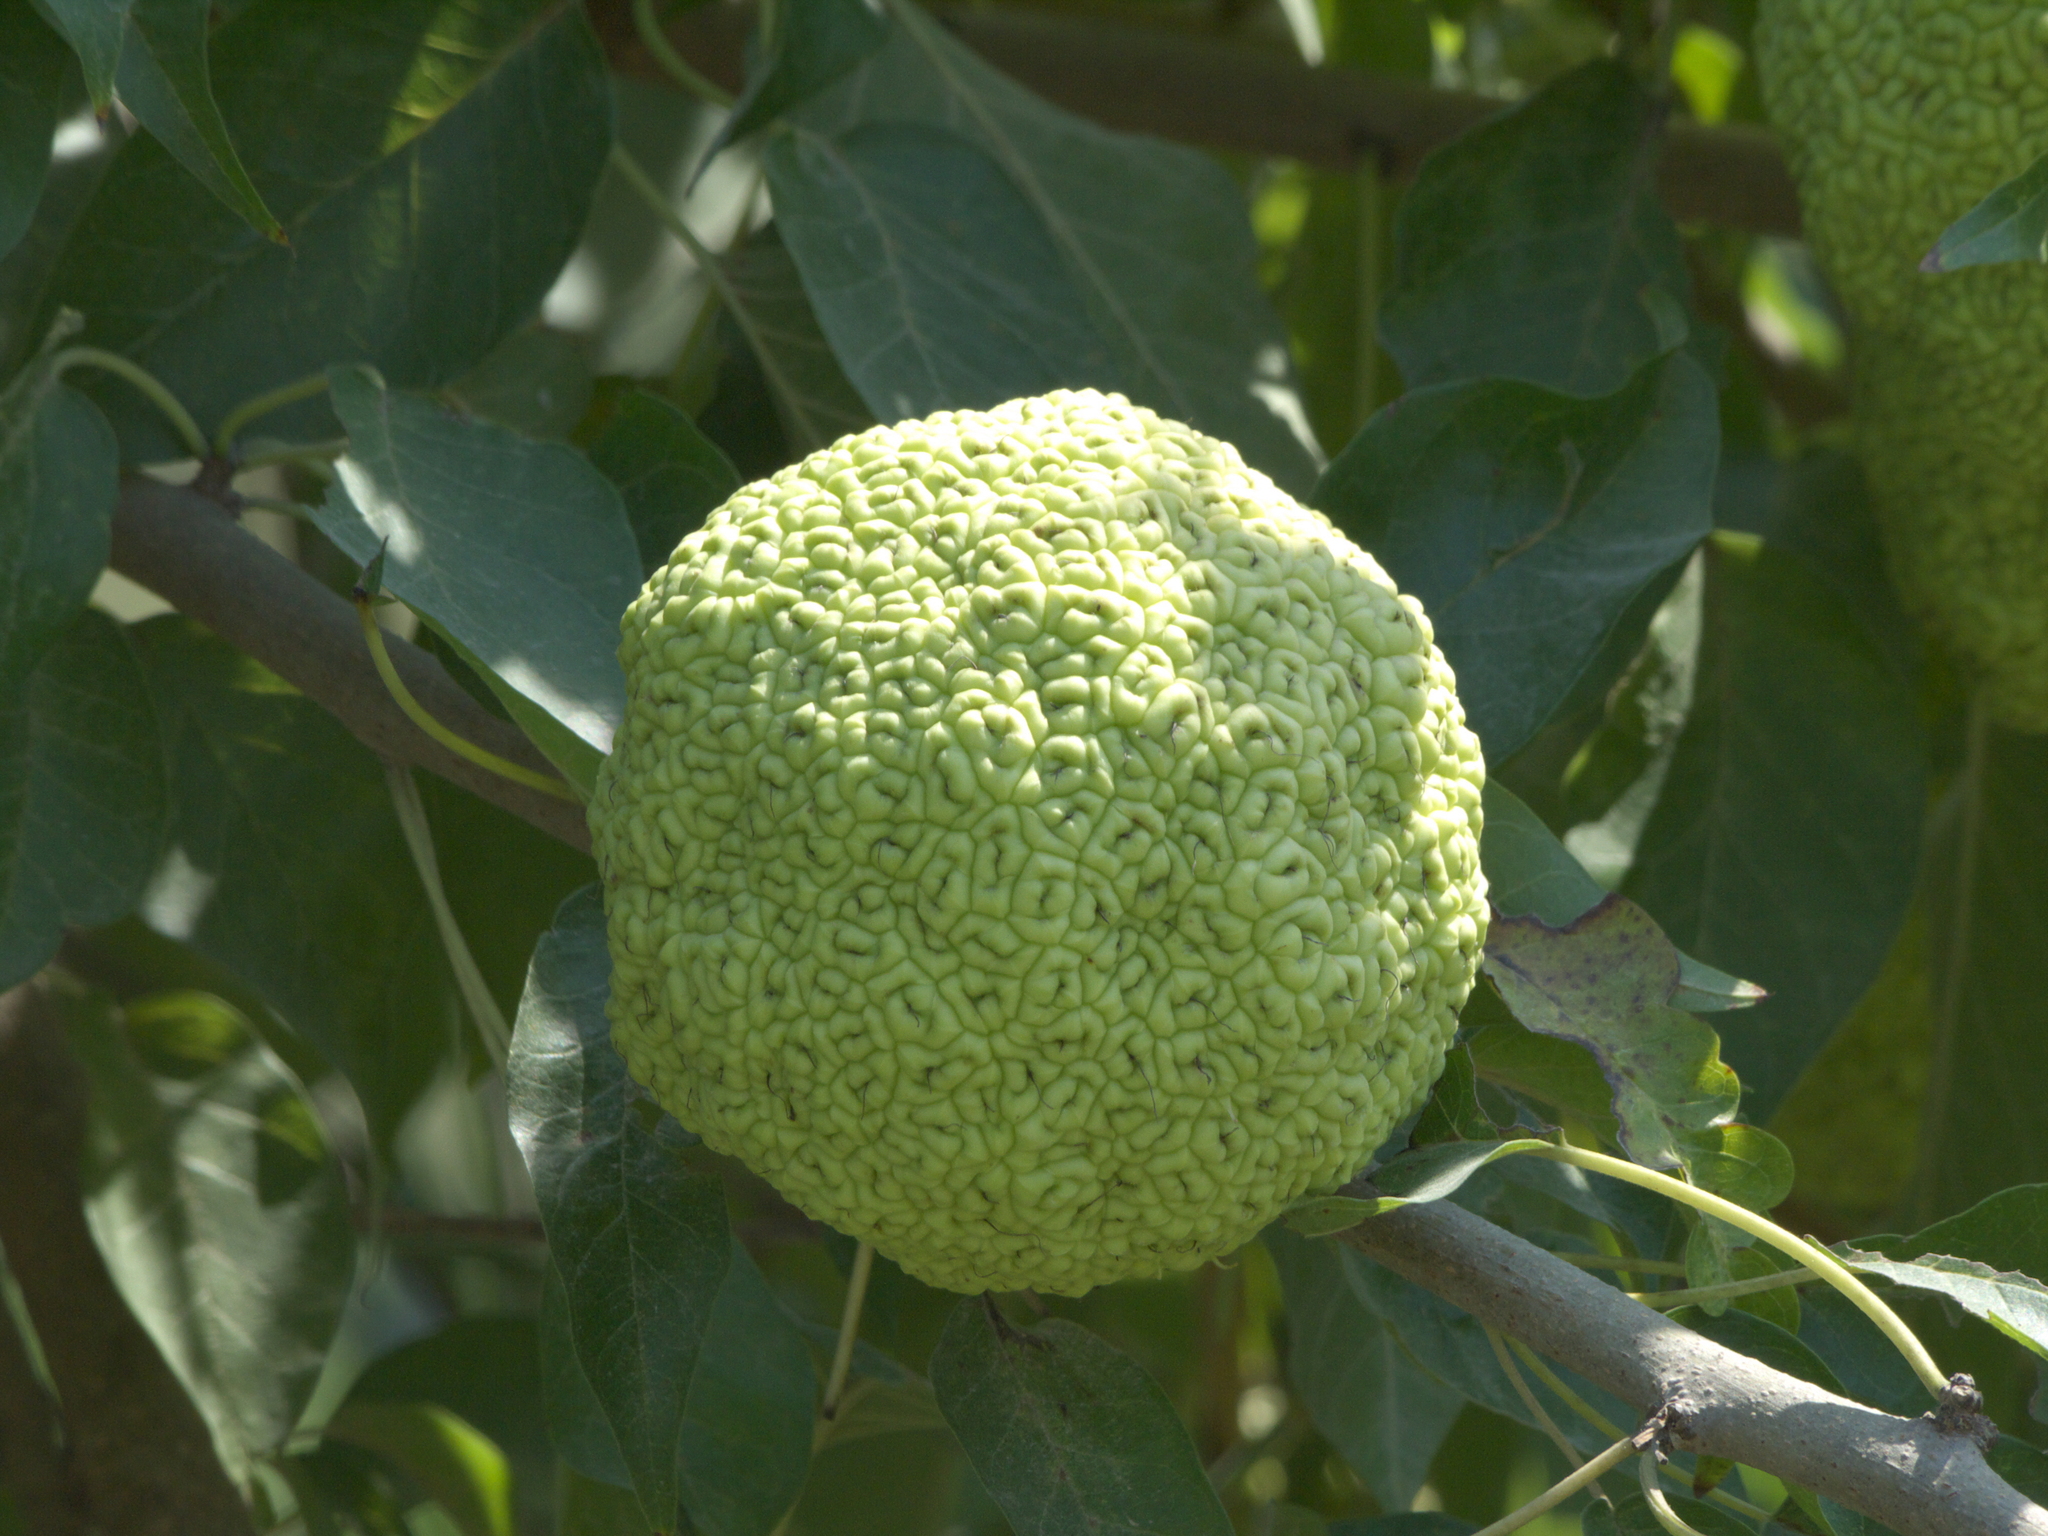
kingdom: Plantae
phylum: Tracheophyta
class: Magnoliopsida
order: Rosales
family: Moraceae
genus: Maclura
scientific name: Maclura pomifera
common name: Osage-orange
